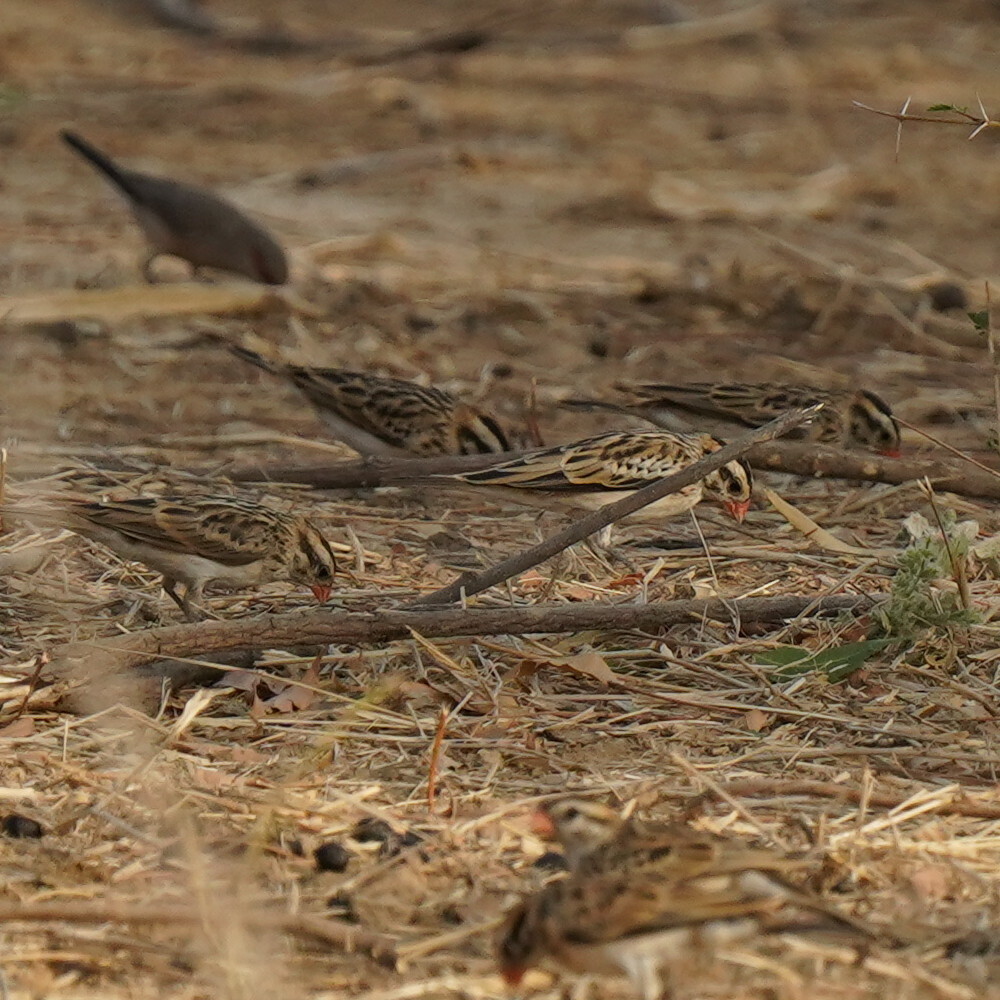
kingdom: Animalia
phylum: Chordata
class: Aves
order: Passeriformes
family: Viduidae
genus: Vidua
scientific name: Vidua macroura
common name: Pin-tailed whydah
